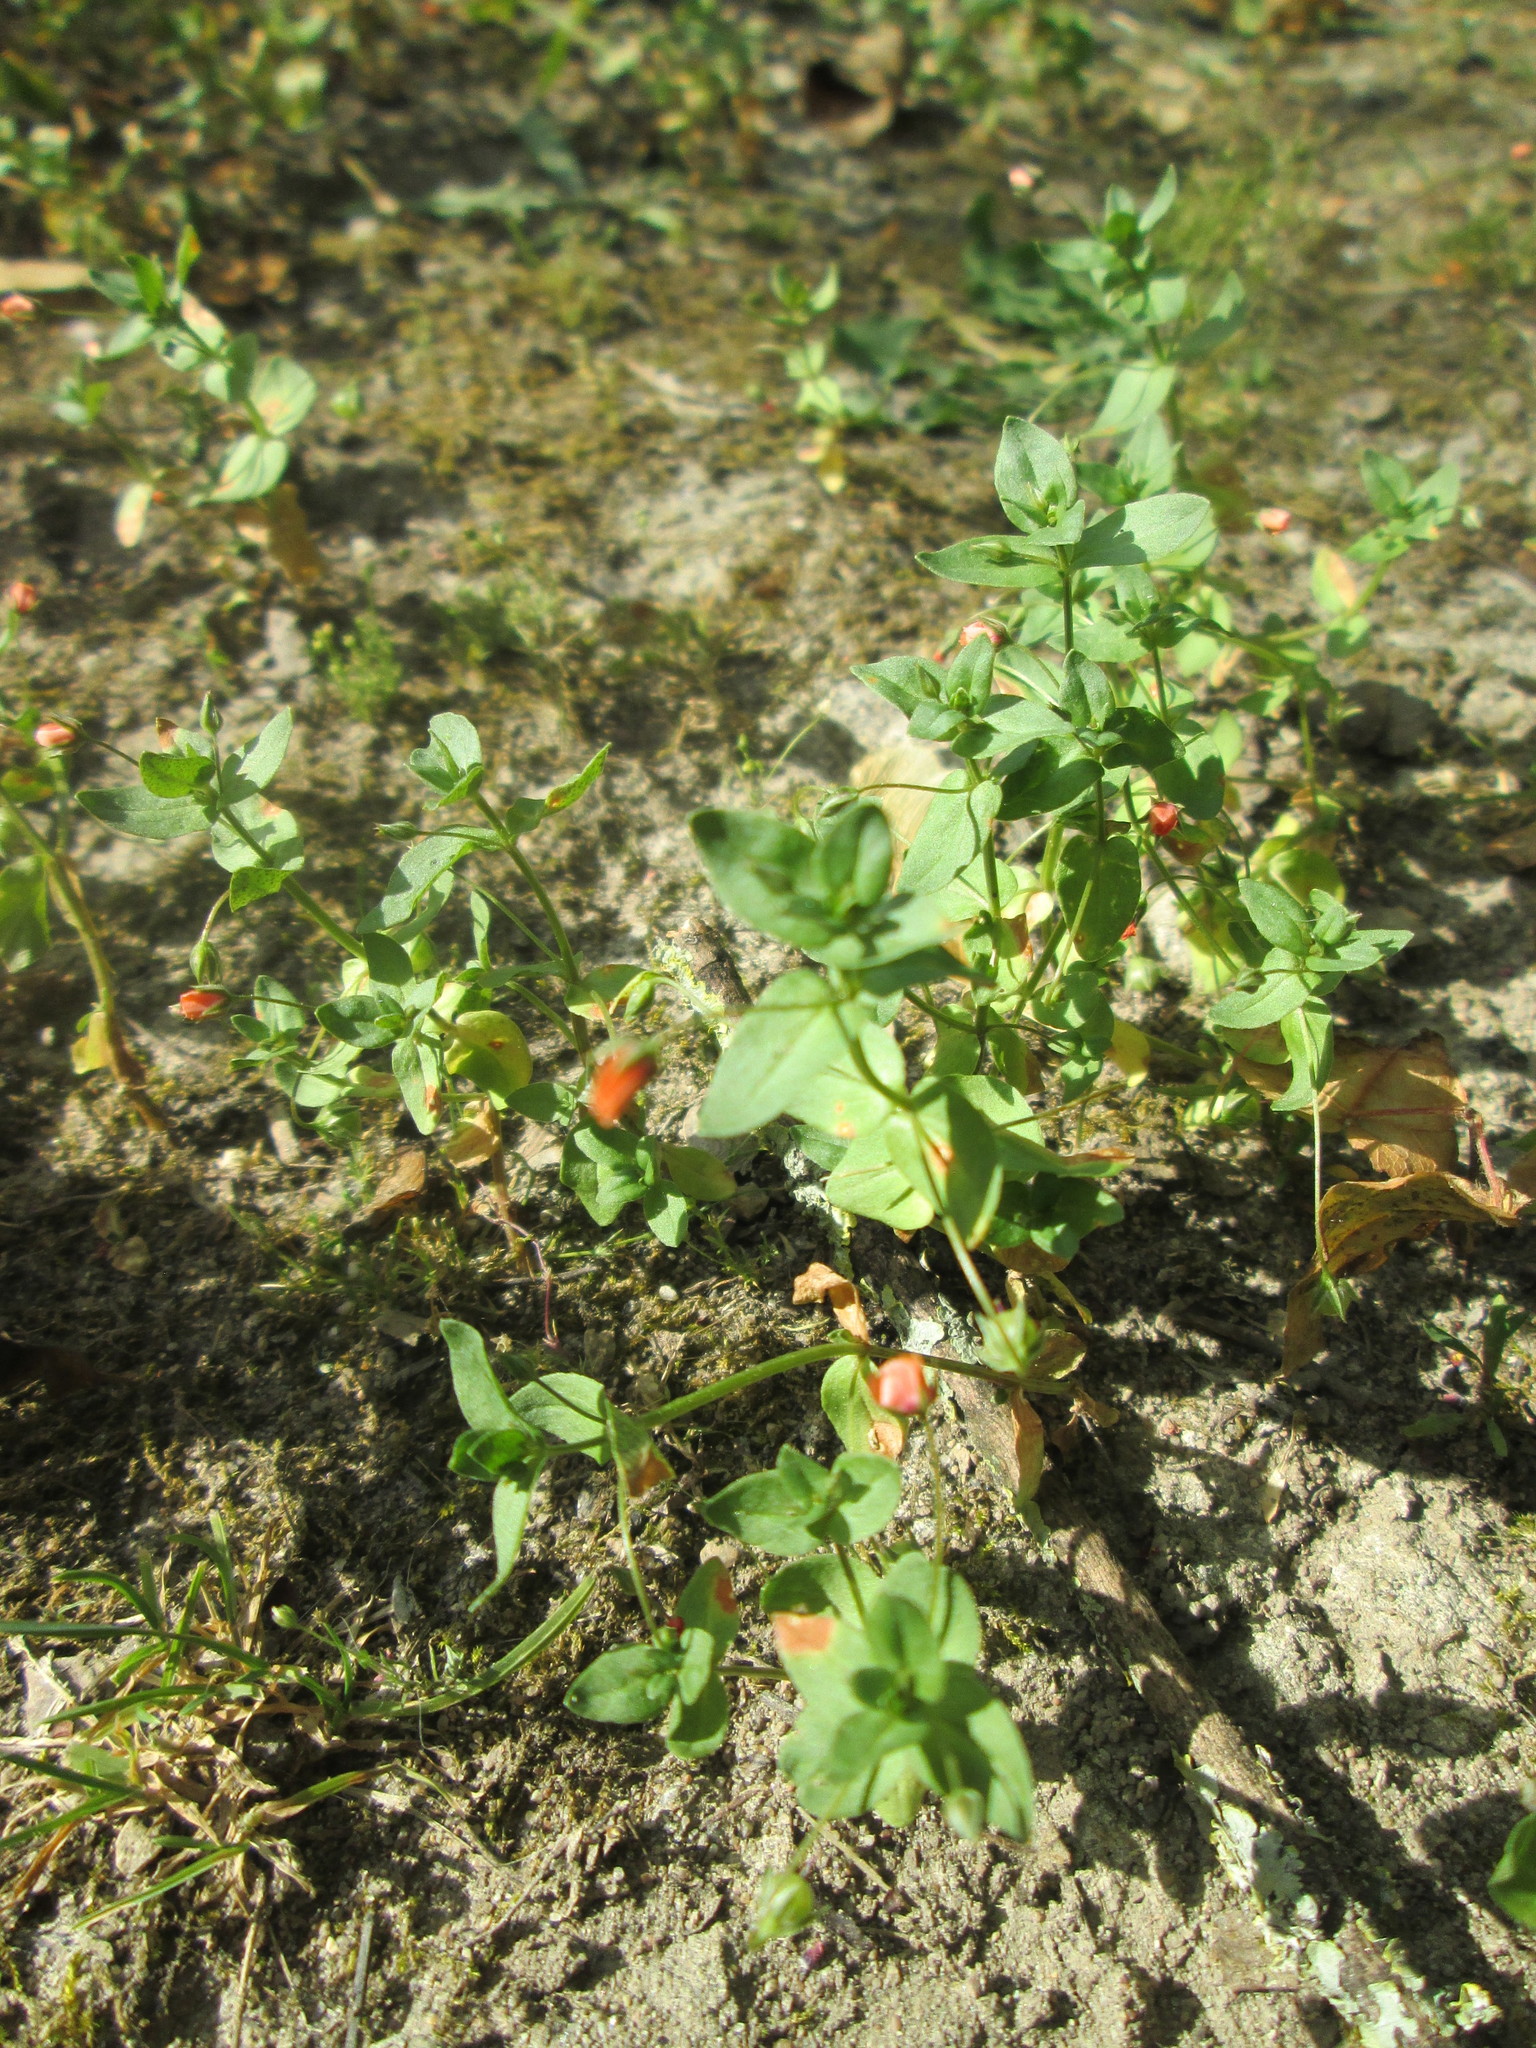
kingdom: Plantae
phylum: Tracheophyta
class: Magnoliopsida
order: Ericales
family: Primulaceae
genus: Lysimachia
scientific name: Lysimachia arvensis
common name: Scarlet pimpernel
